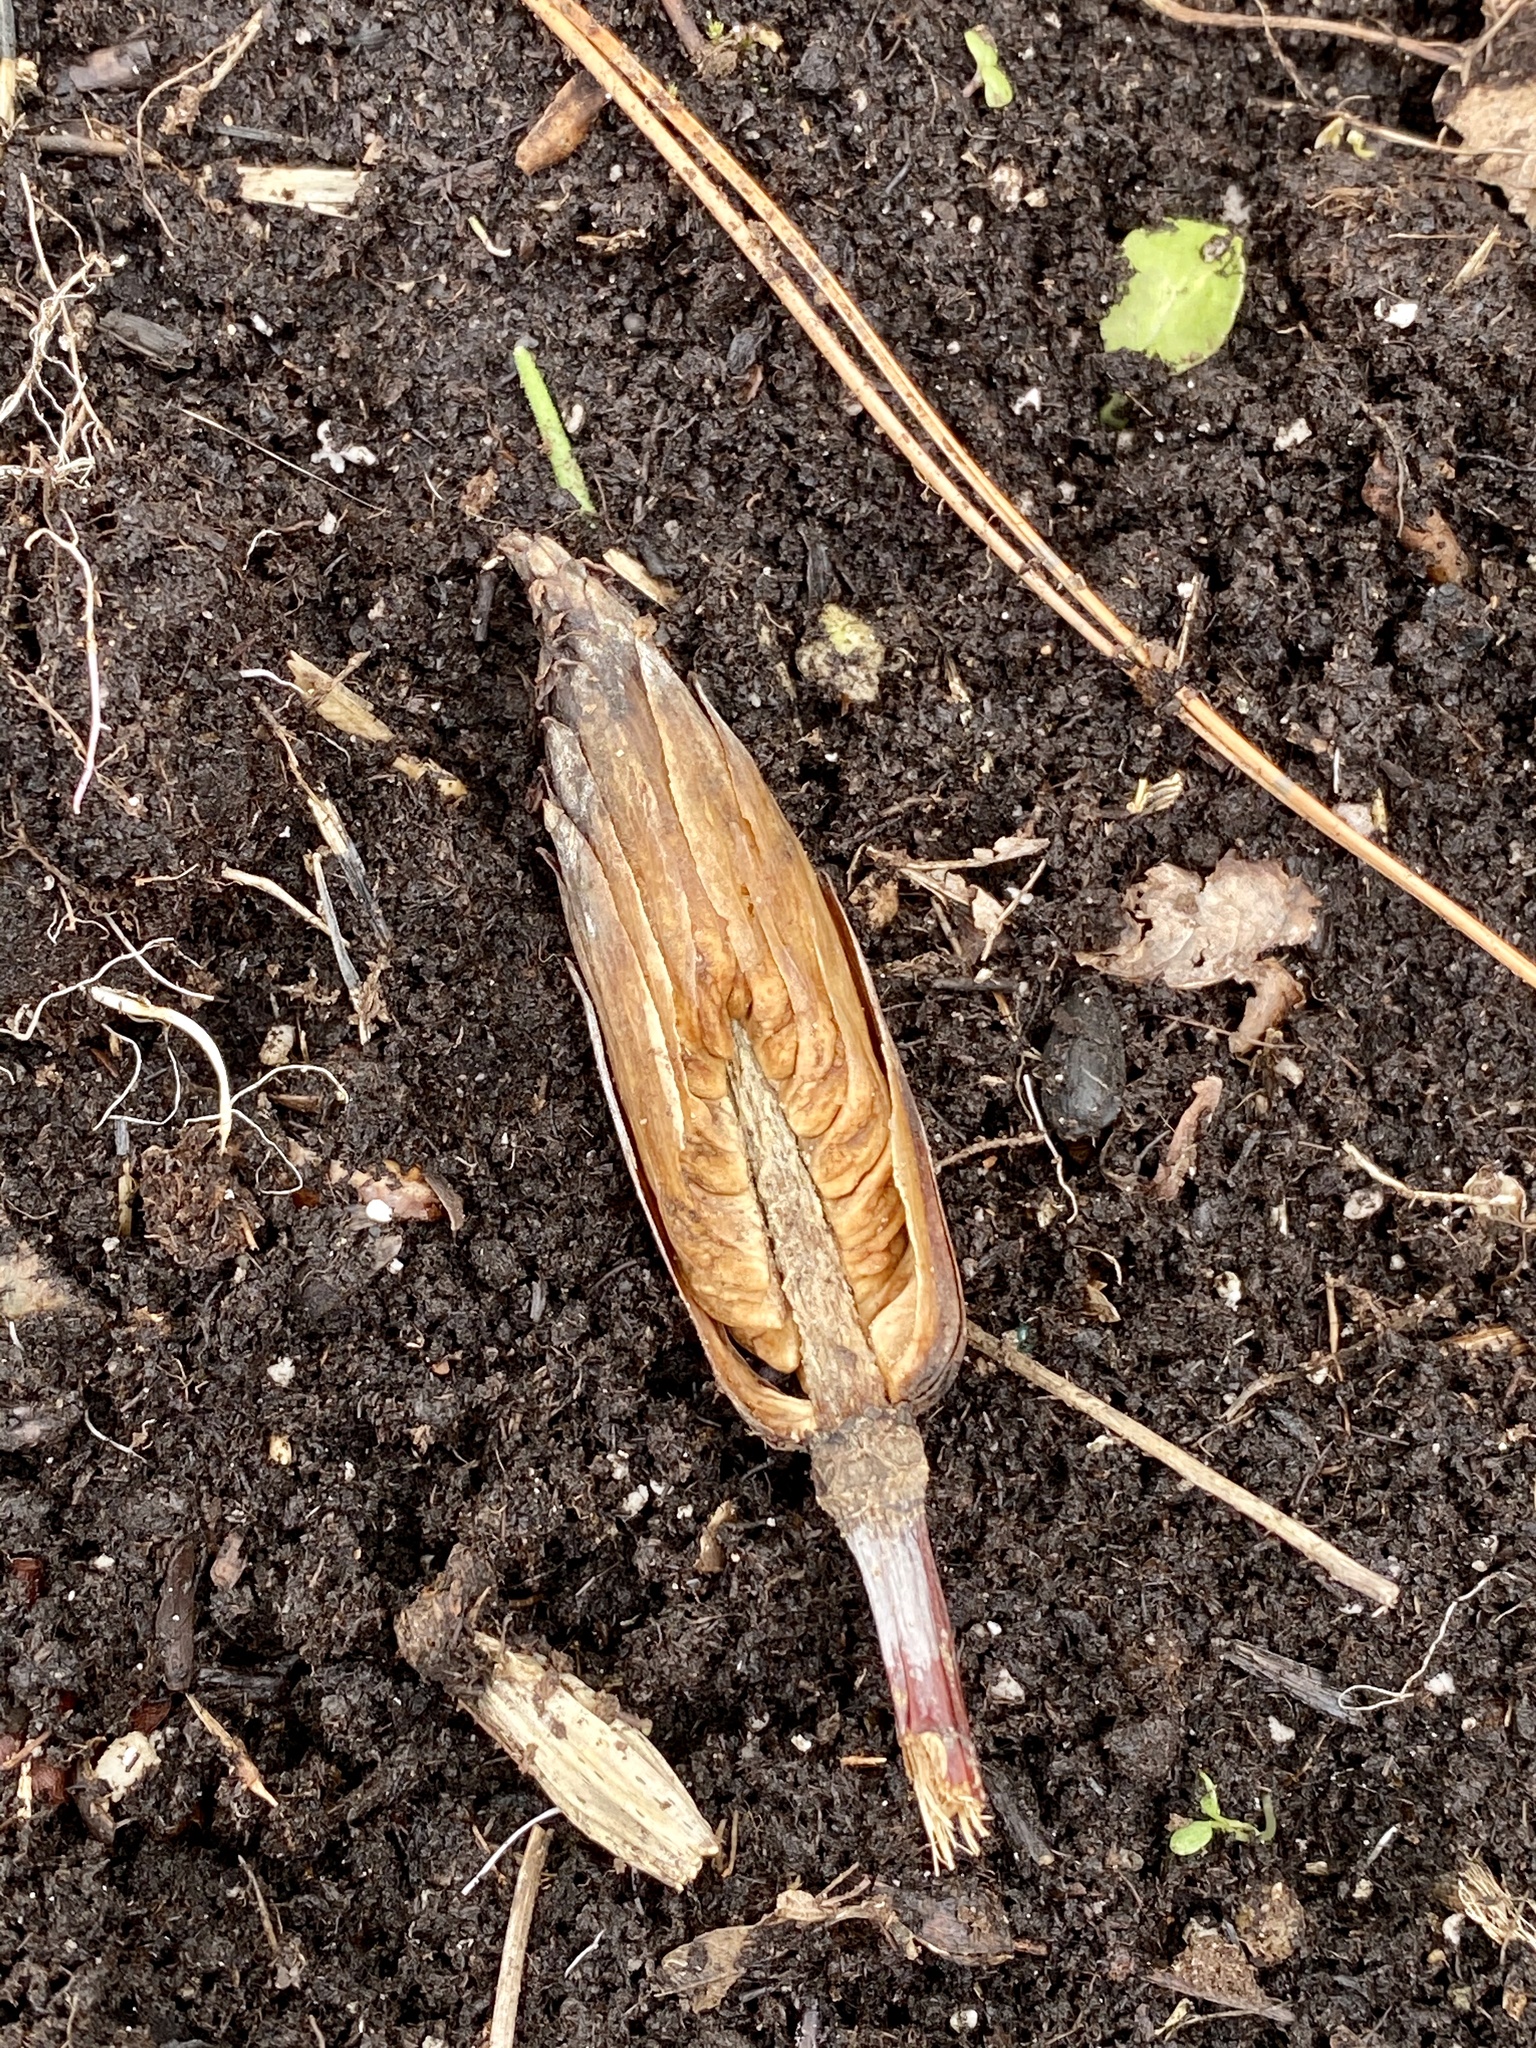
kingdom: Plantae
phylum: Tracheophyta
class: Magnoliopsida
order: Magnoliales
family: Magnoliaceae
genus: Liriodendron
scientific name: Liriodendron tulipifera
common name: Tulip tree
